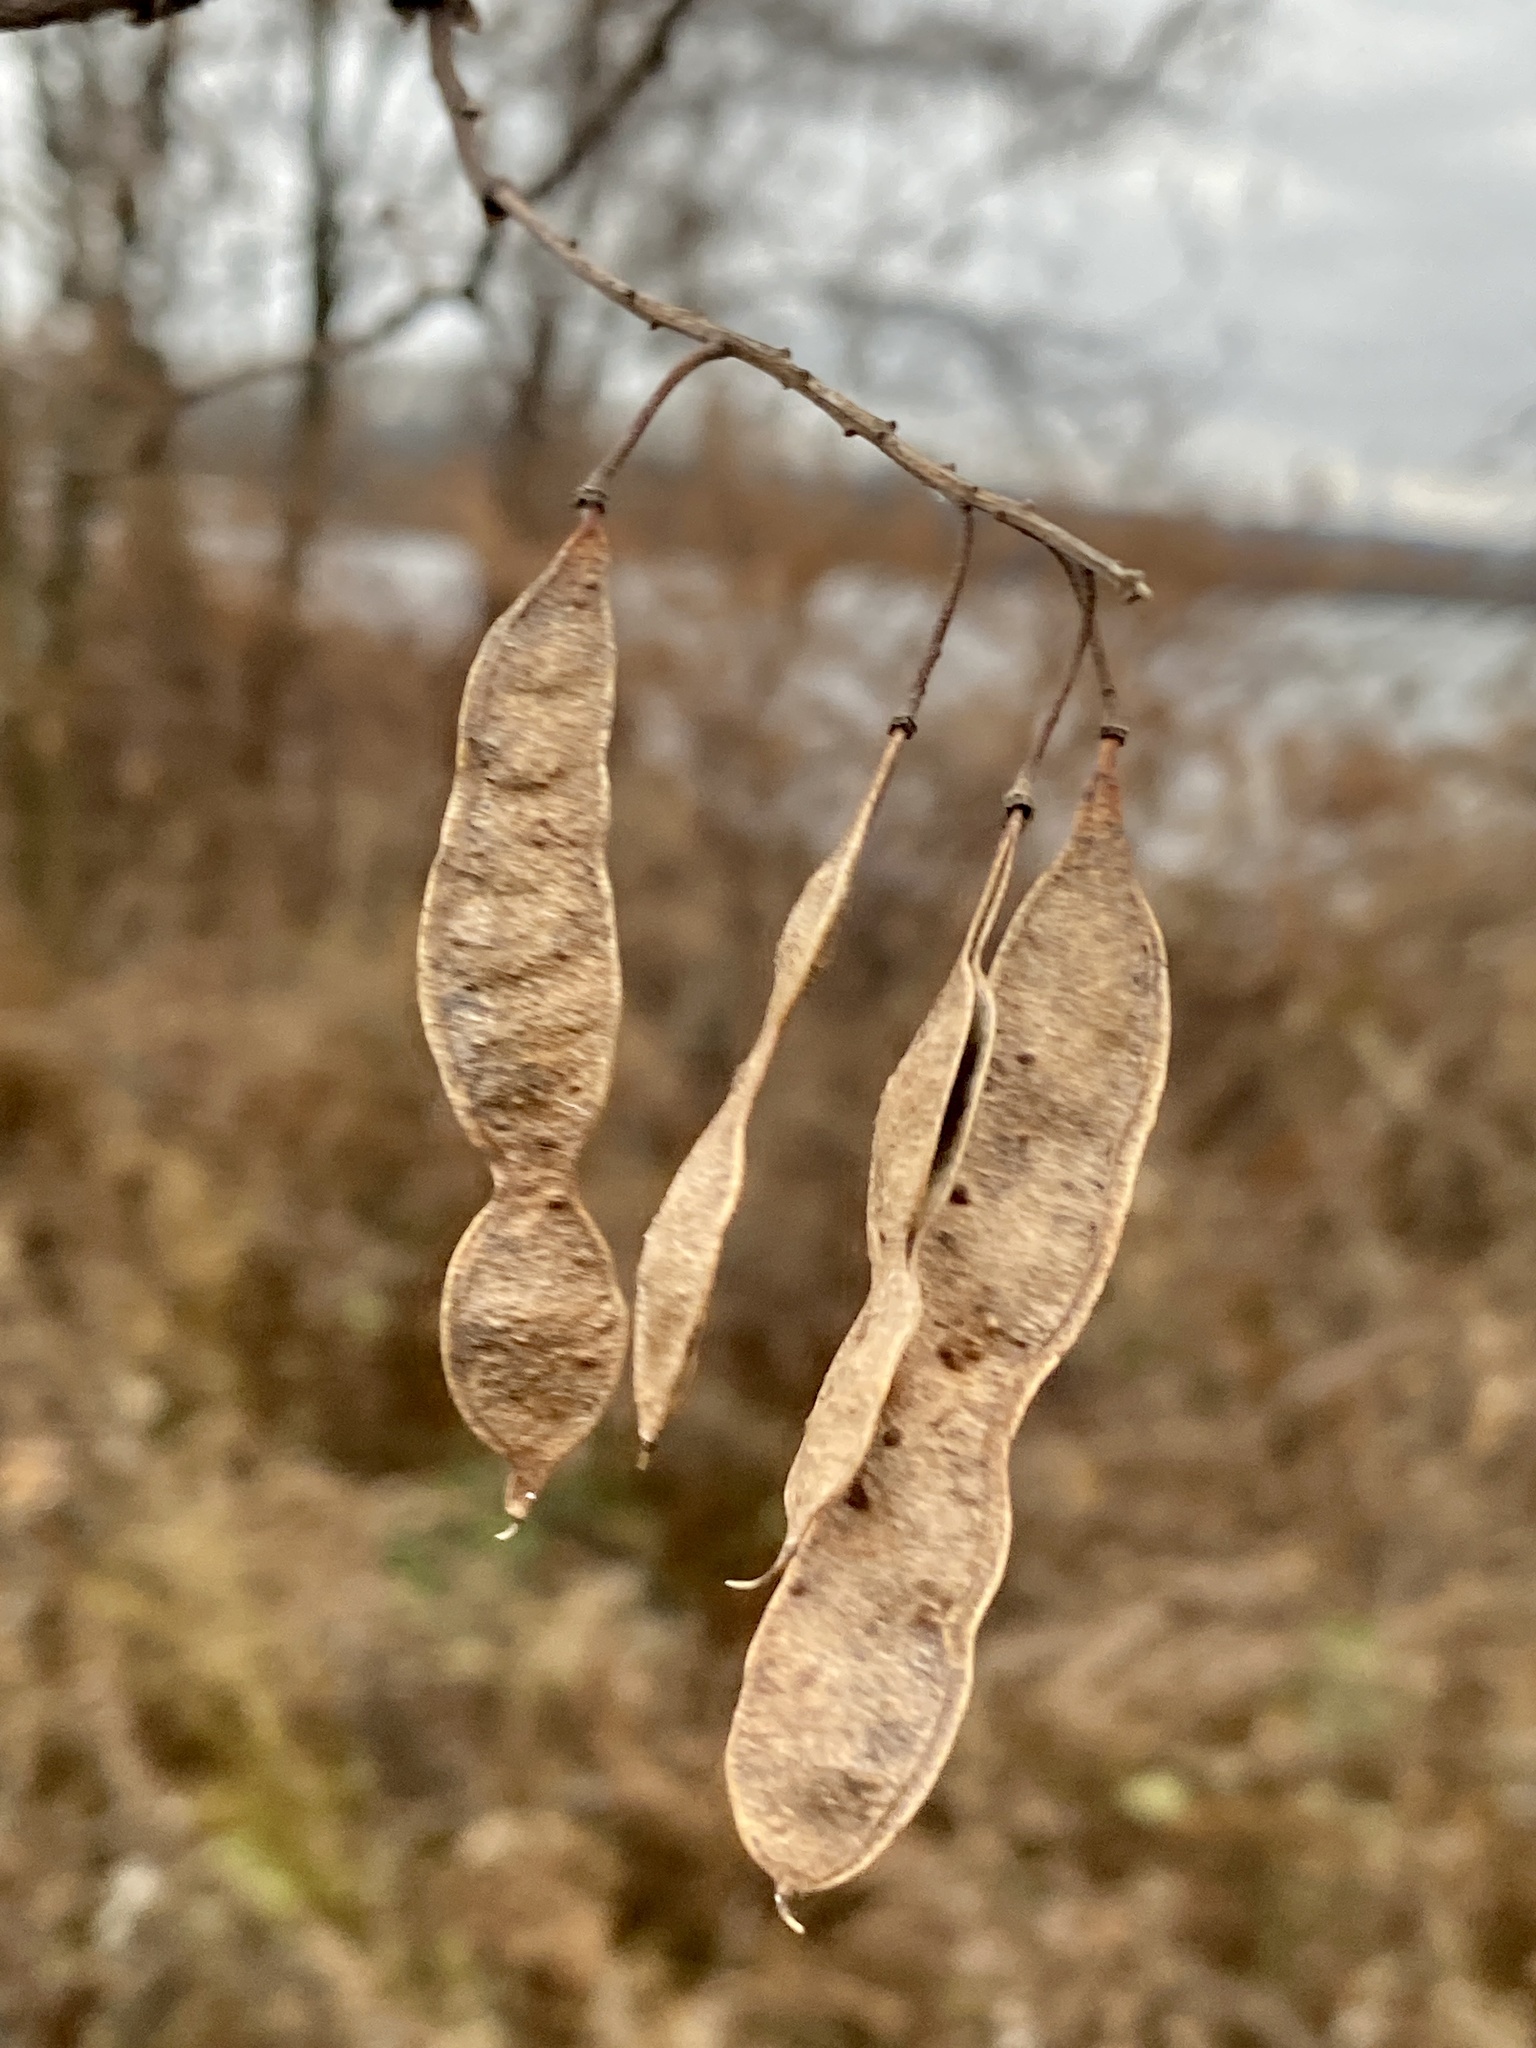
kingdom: Plantae
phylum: Tracheophyta
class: Magnoliopsida
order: Fabales
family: Fabaceae
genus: Robinia
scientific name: Robinia pseudoacacia
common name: Black locust
